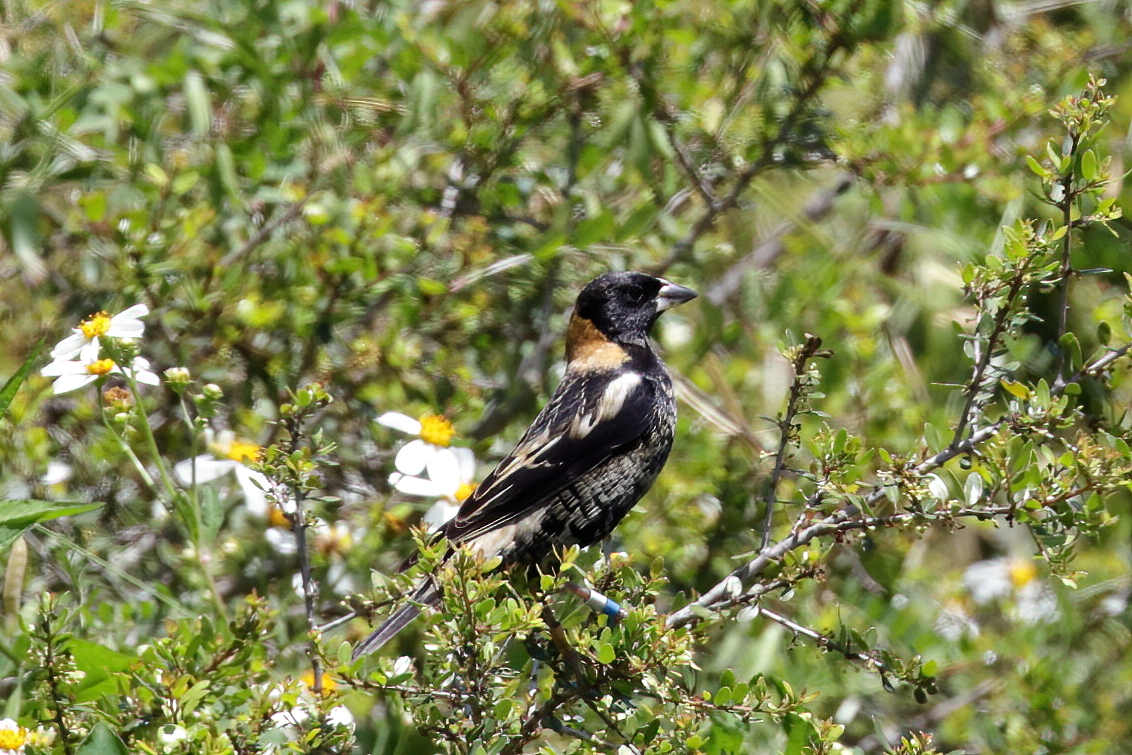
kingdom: Animalia
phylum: Chordata
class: Aves
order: Passeriformes
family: Icteridae
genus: Dolichonyx
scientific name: Dolichonyx oryzivorus
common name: Bobolink
